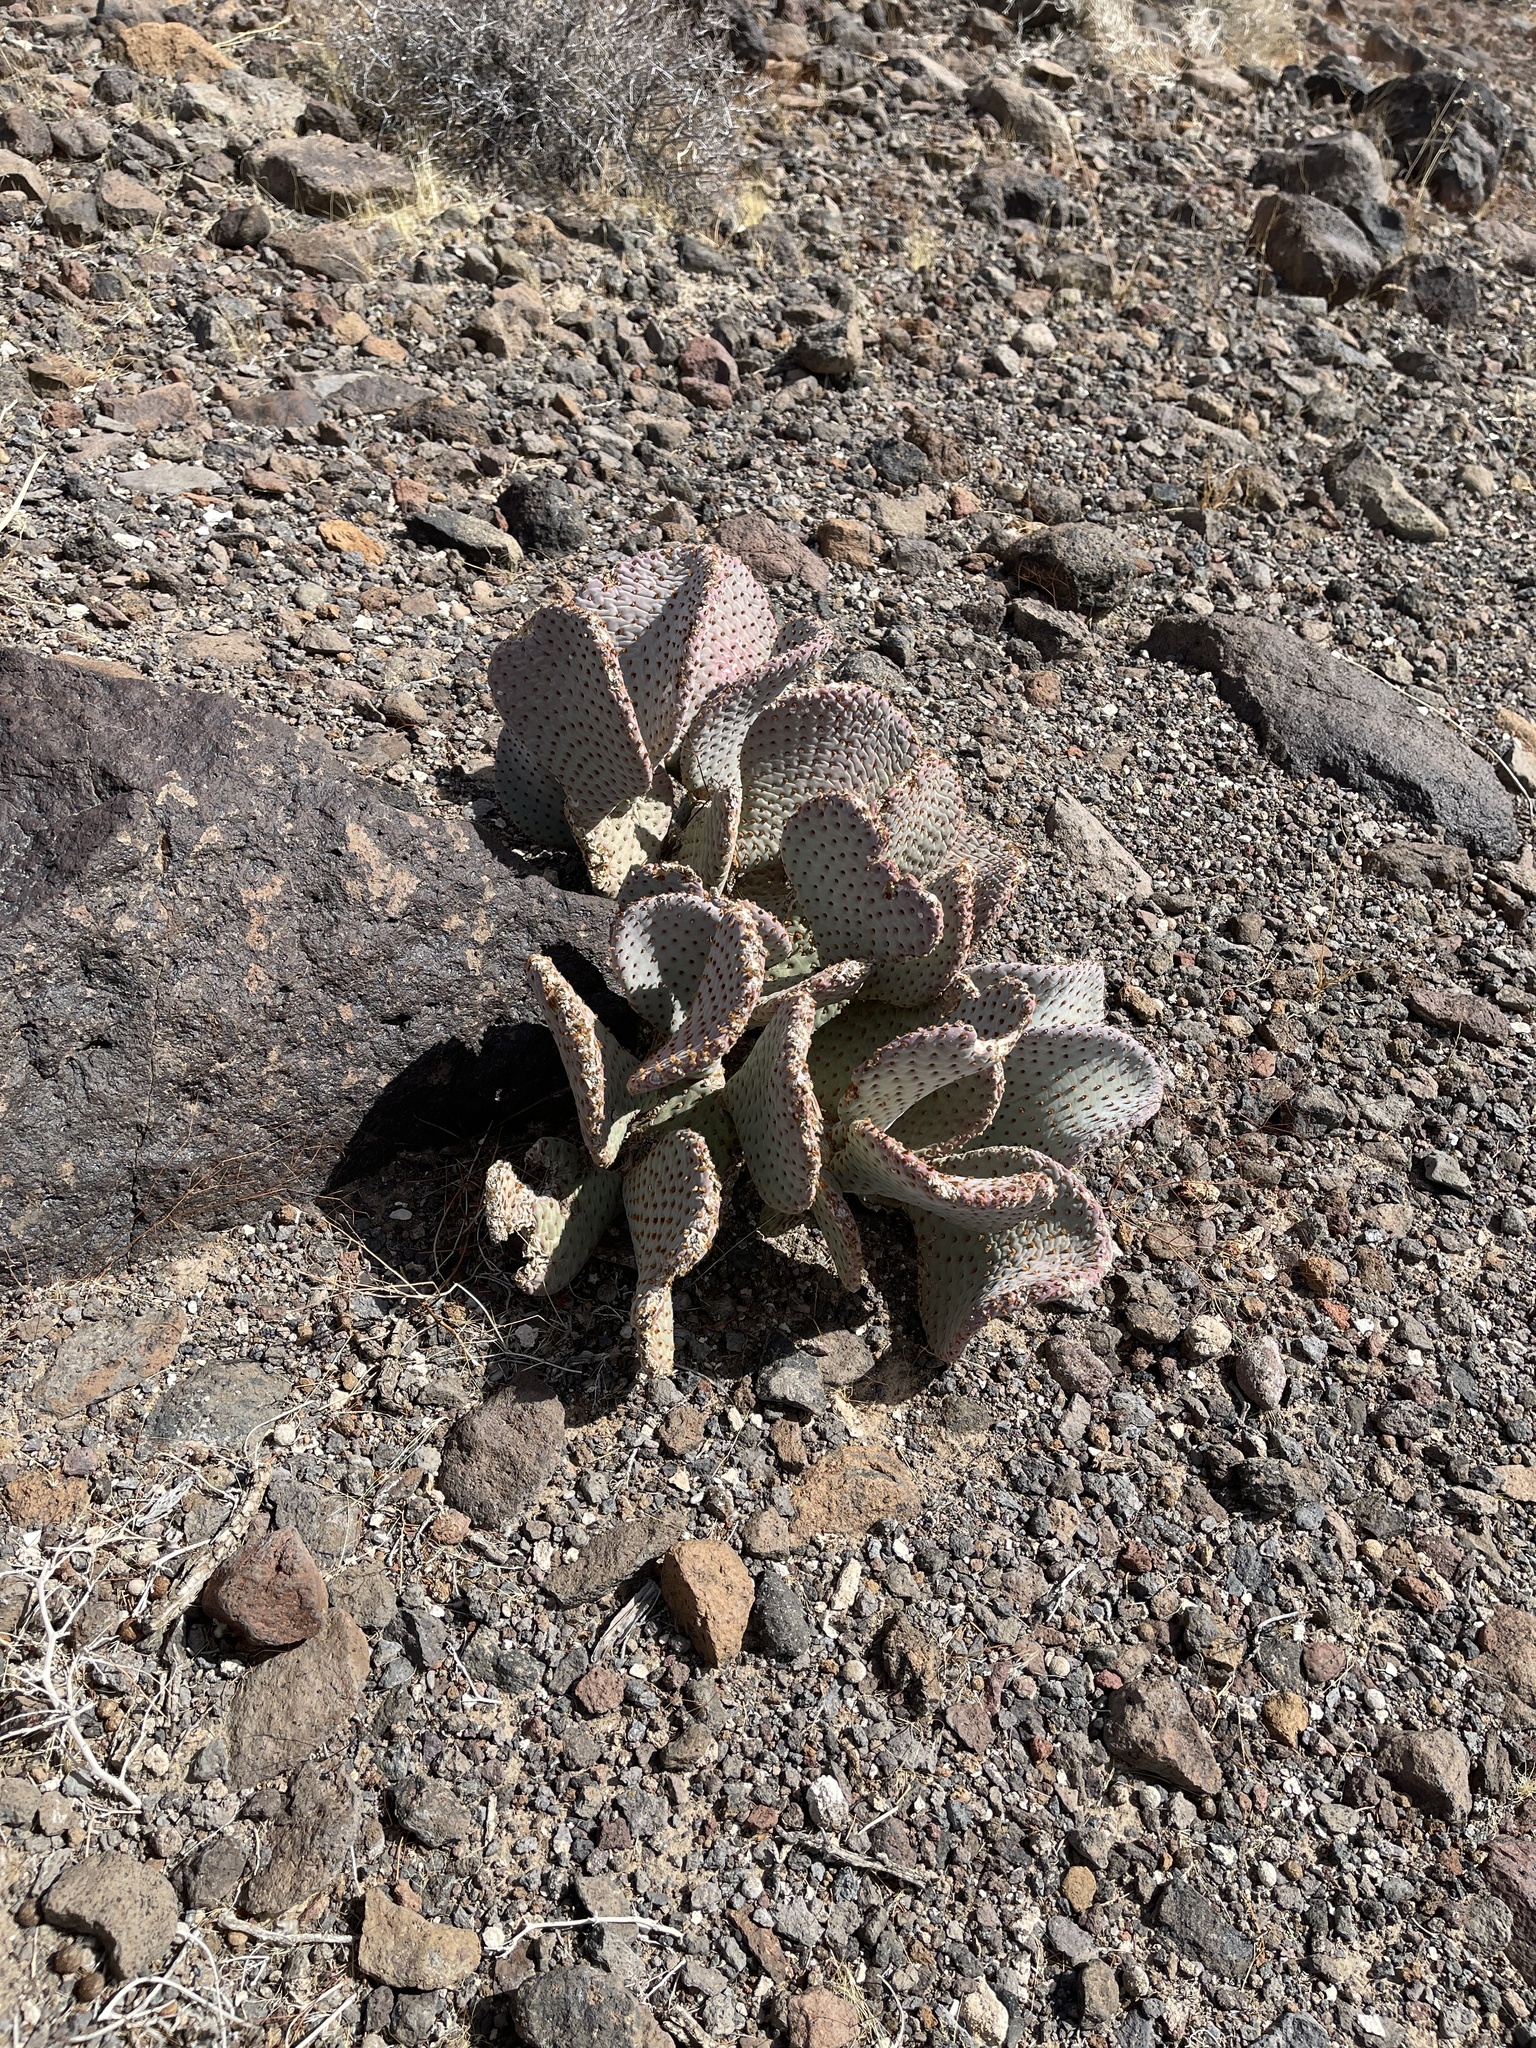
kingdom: Plantae
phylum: Tracheophyta
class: Magnoliopsida
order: Caryophyllales
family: Cactaceae
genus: Opuntia
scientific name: Opuntia basilaris
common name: Beavertail prickly-pear
